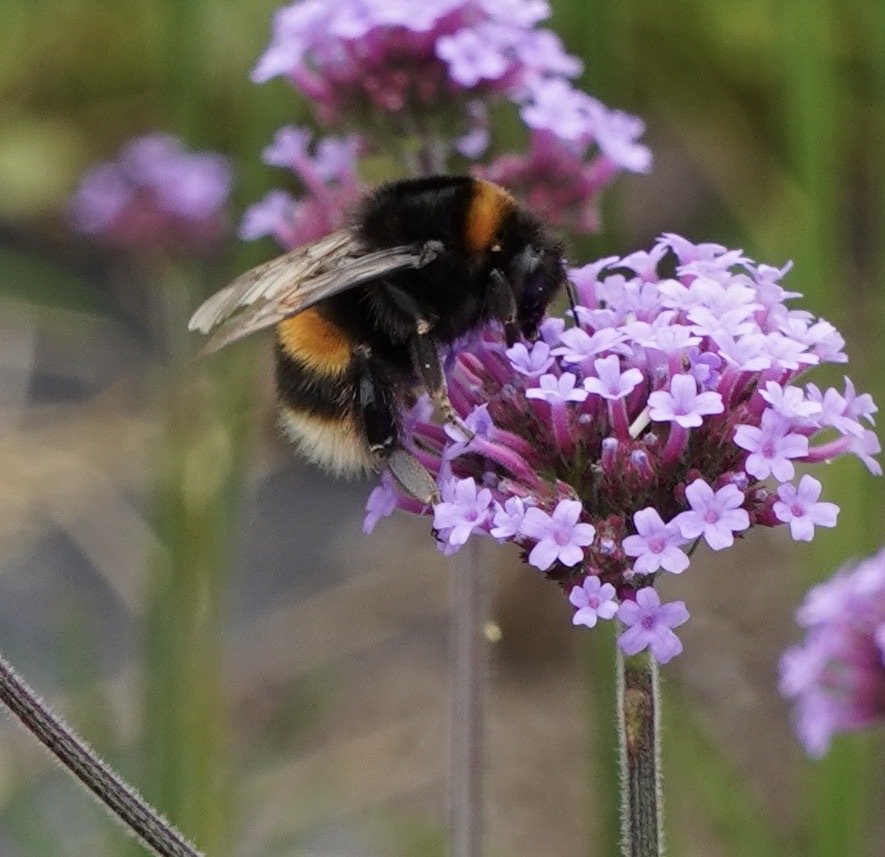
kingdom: Animalia
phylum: Arthropoda
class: Insecta
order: Hymenoptera
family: Apidae
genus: Bombus
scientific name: Bombus terrestris
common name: Buff-tailed bumblebee
